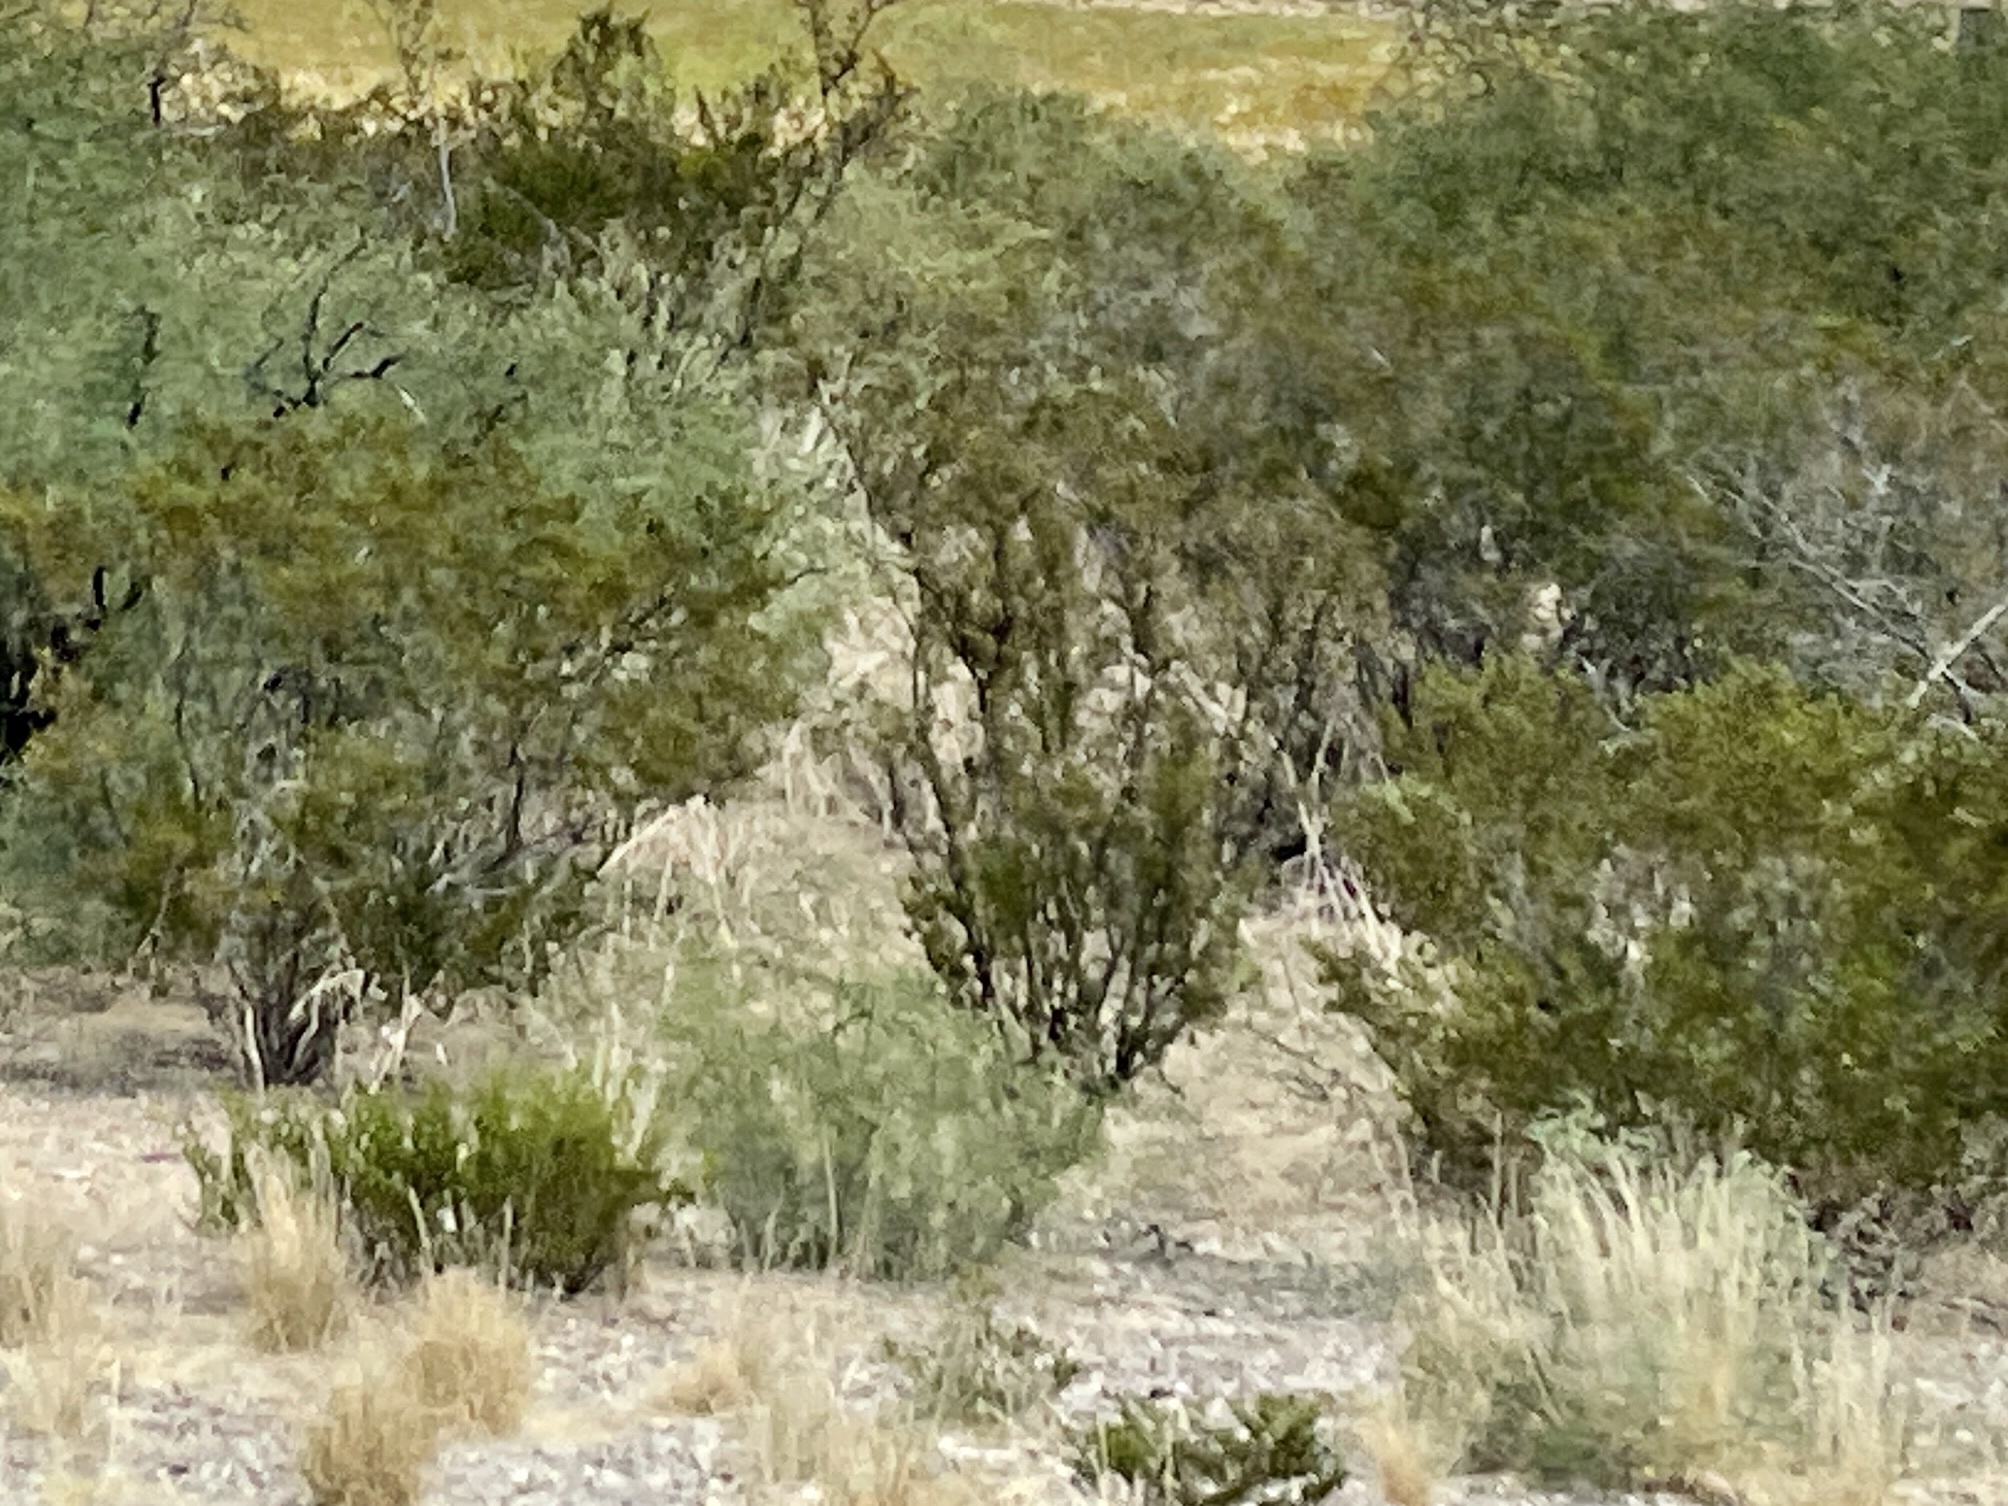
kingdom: Plantae
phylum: Tracheophyta
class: Magnoliopsida
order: Zygophyllales
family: Zygophyllaceae
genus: Larrea
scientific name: Larrea tridentata
